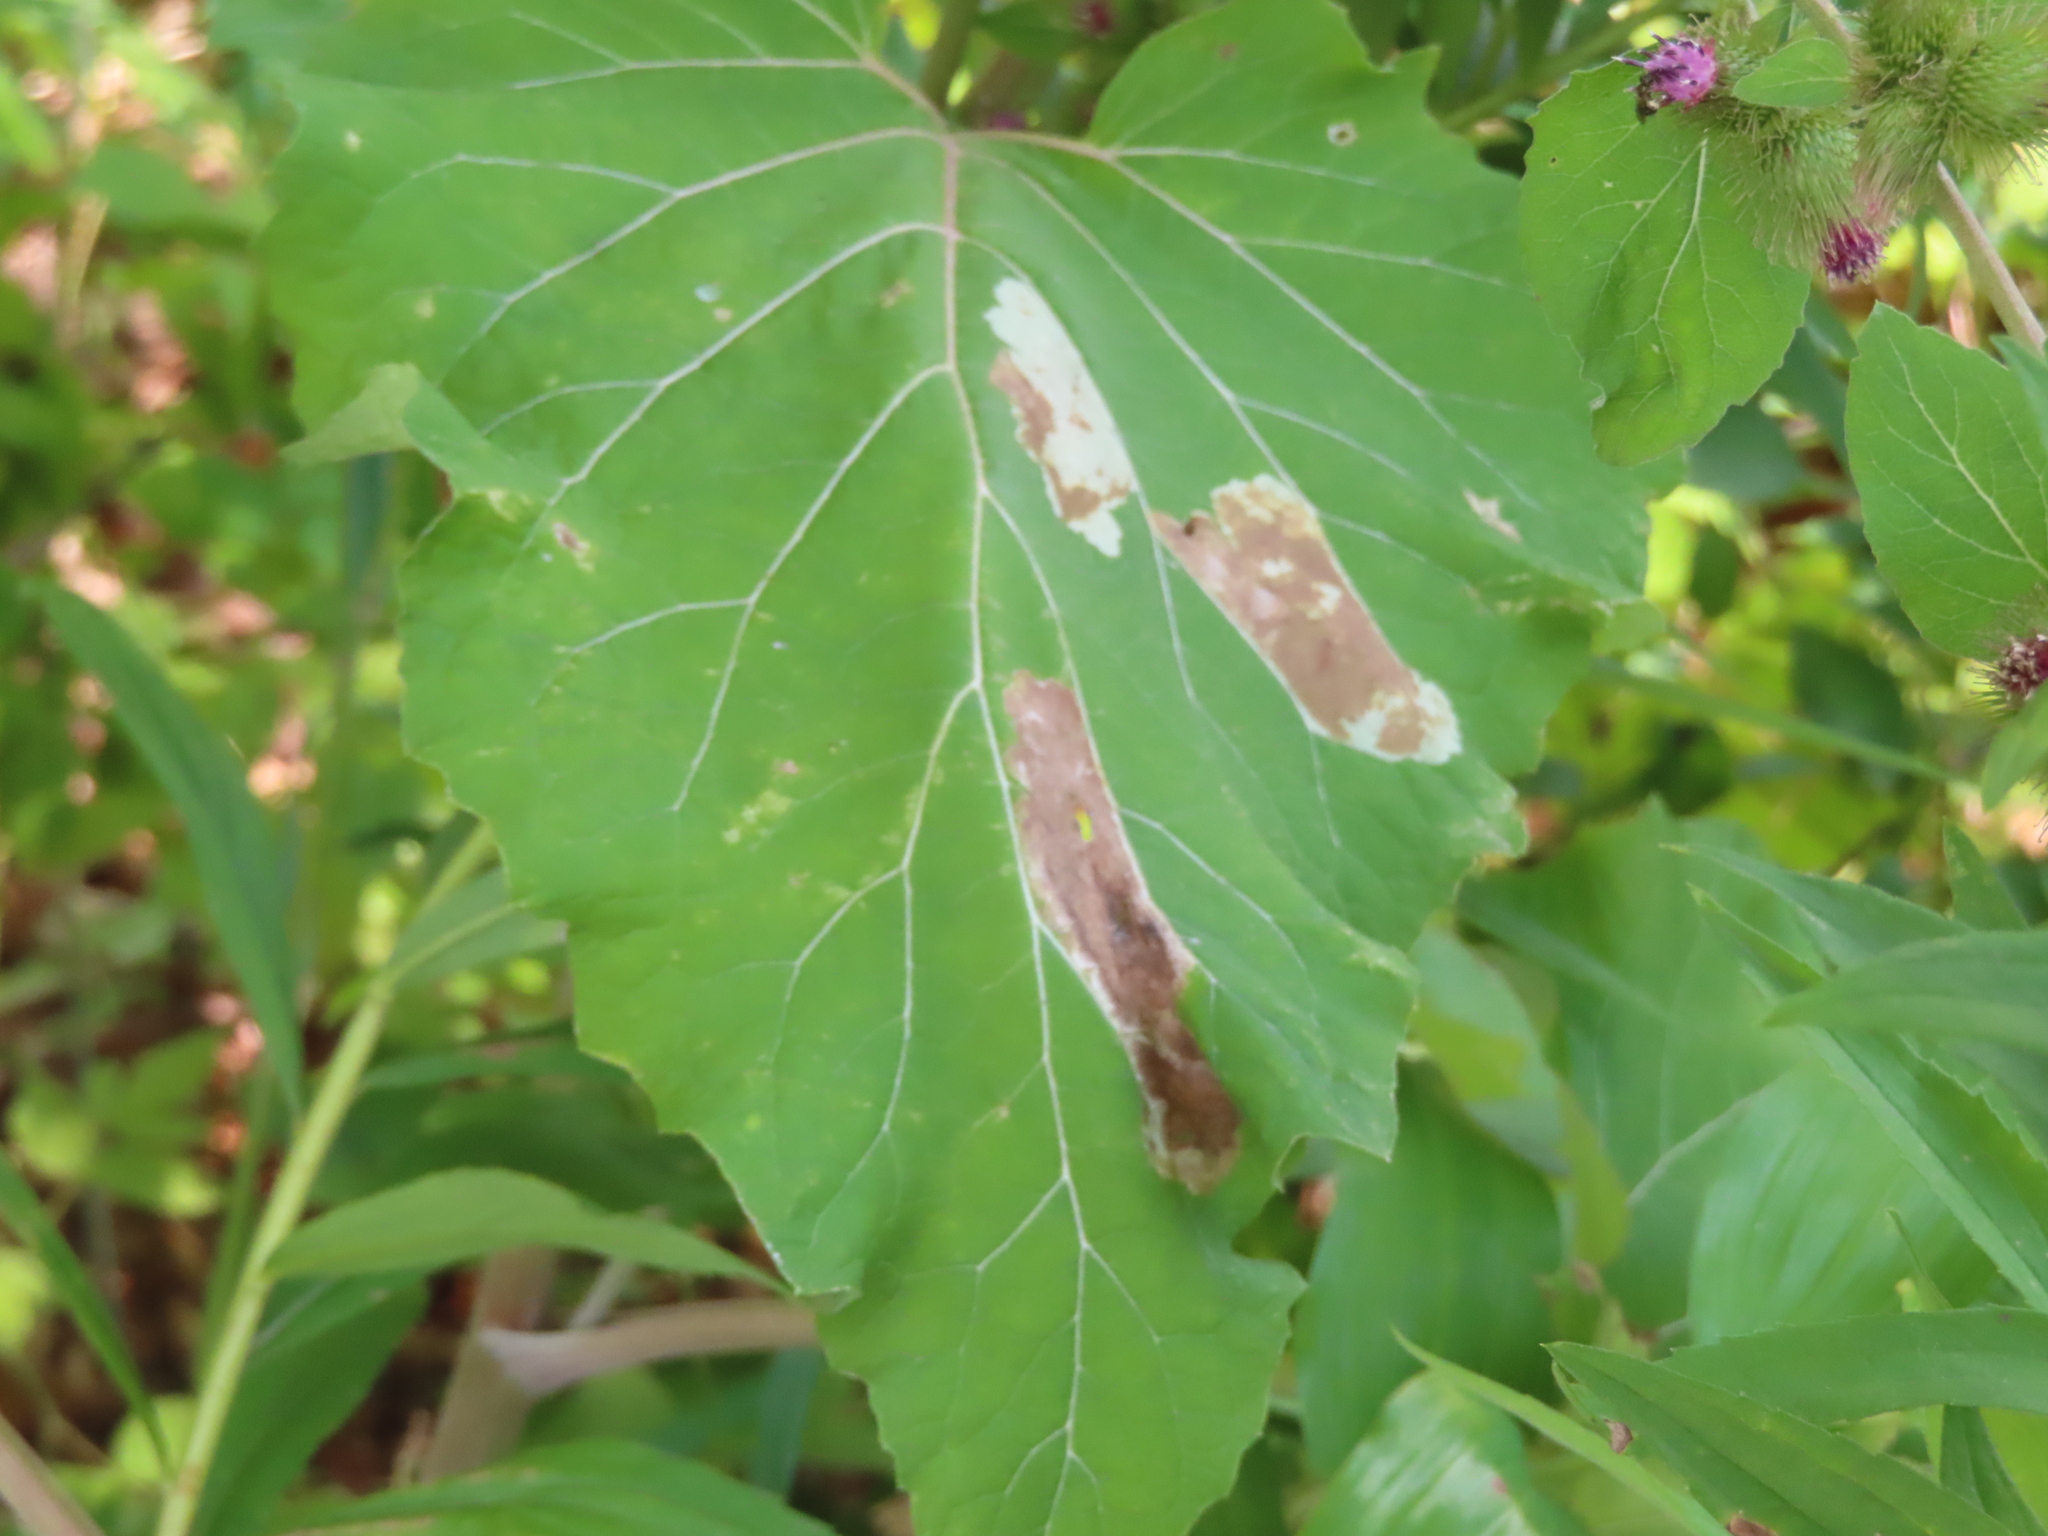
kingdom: Animalia
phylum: Arthropoda
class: Insecta
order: Diptera
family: Agromyzidae
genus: Calycomyza
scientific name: Calycomyza flavinotum
